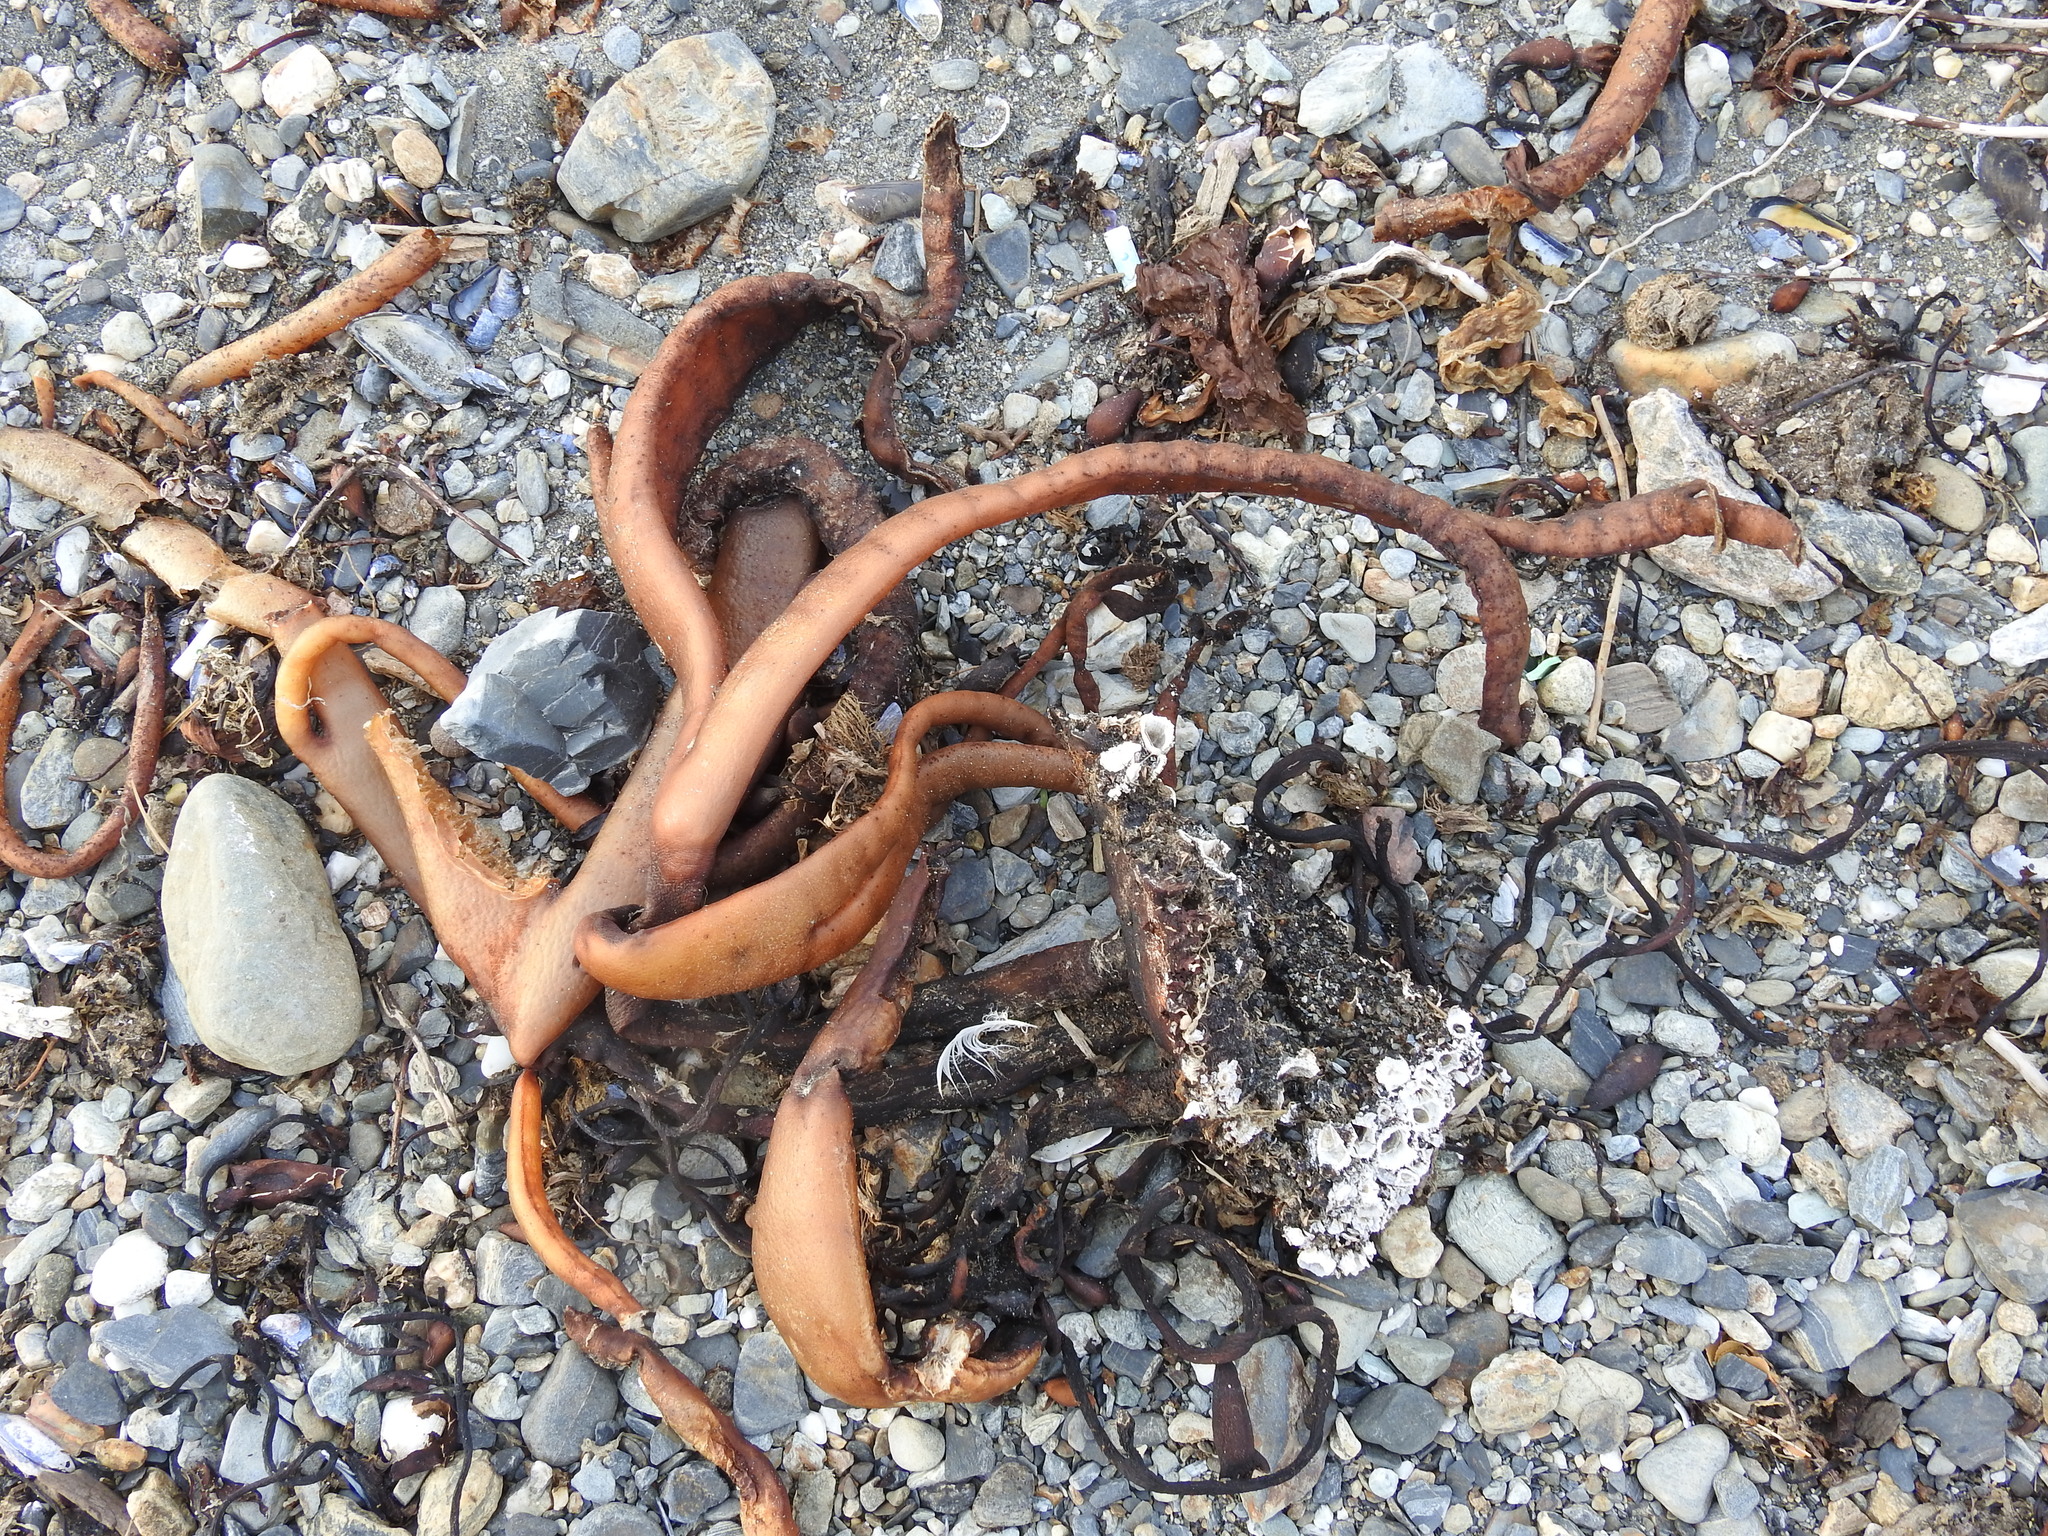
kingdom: Chromista
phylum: Ochrophyta
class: Phaeophyceae
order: Fucales
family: Durvillaeaceae
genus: Durvillaea
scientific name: Durvillaea antarctica
